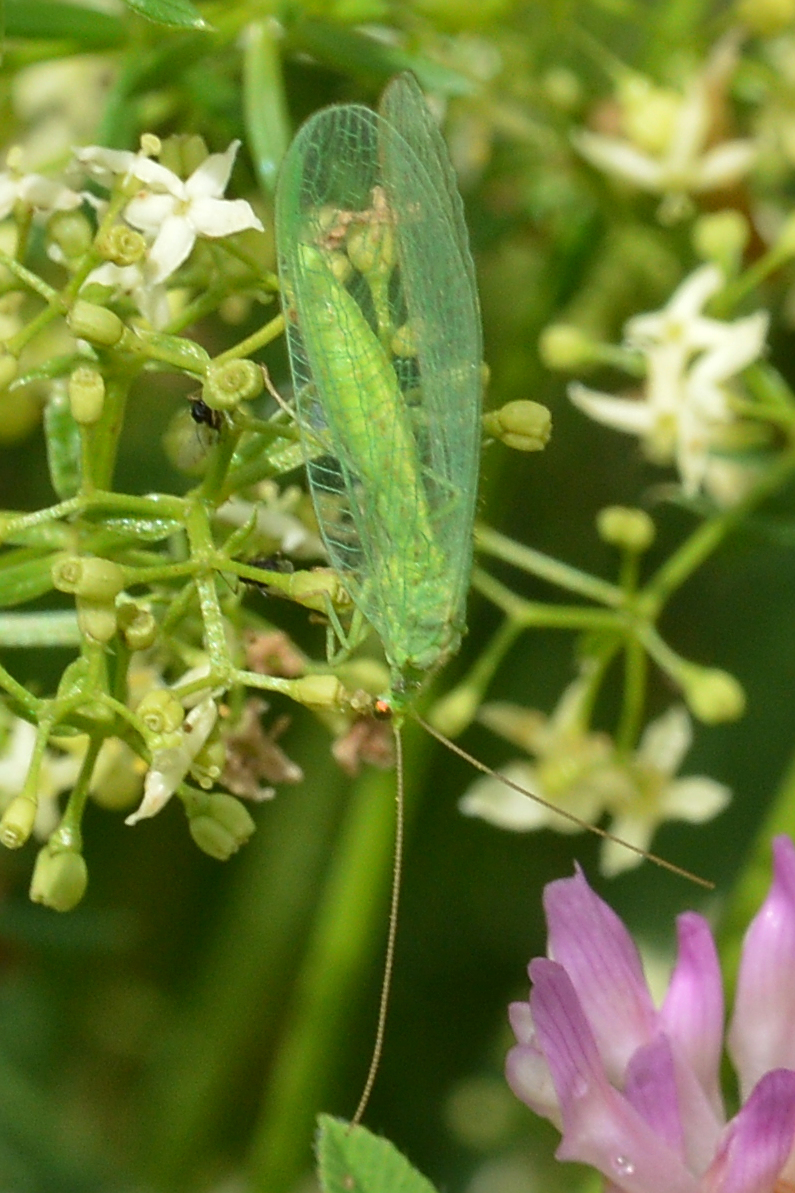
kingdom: Animalia
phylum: Arthropoda
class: Insecta
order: Neuroptera
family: Chrysopidae
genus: Chrysoperla
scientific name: Chrysoperla
